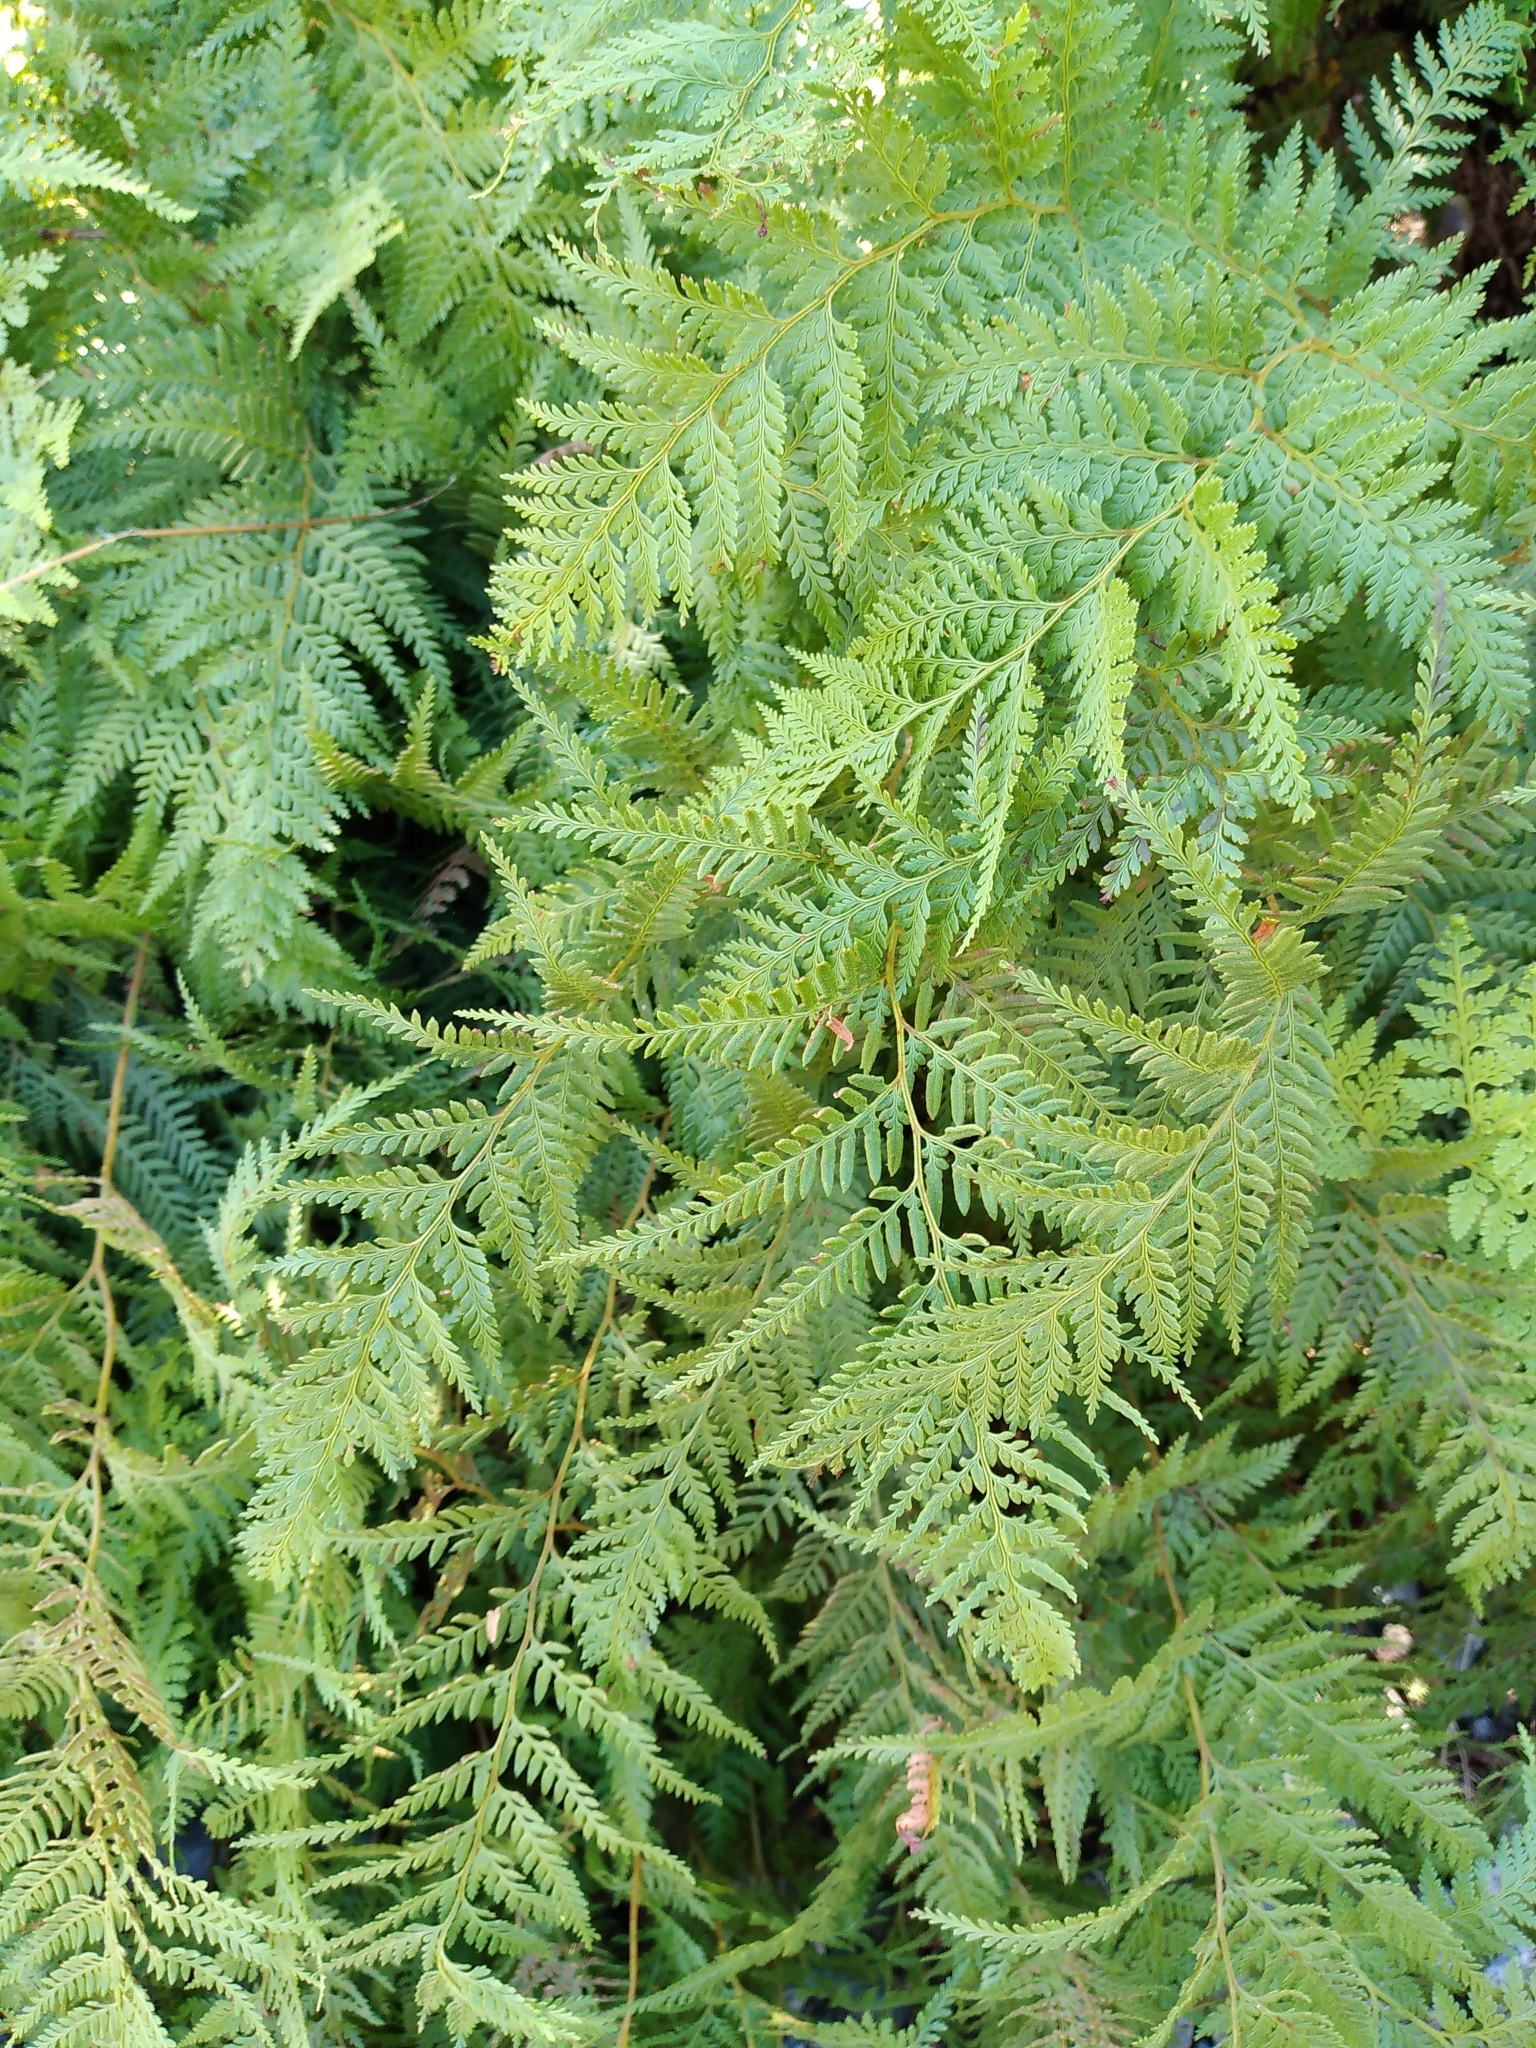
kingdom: Plantae
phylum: Tracheophyta
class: Polypodiopsida
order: Polypodiales
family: Dennstaedtiaceae
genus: Paesia
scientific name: Paesia scaberula
